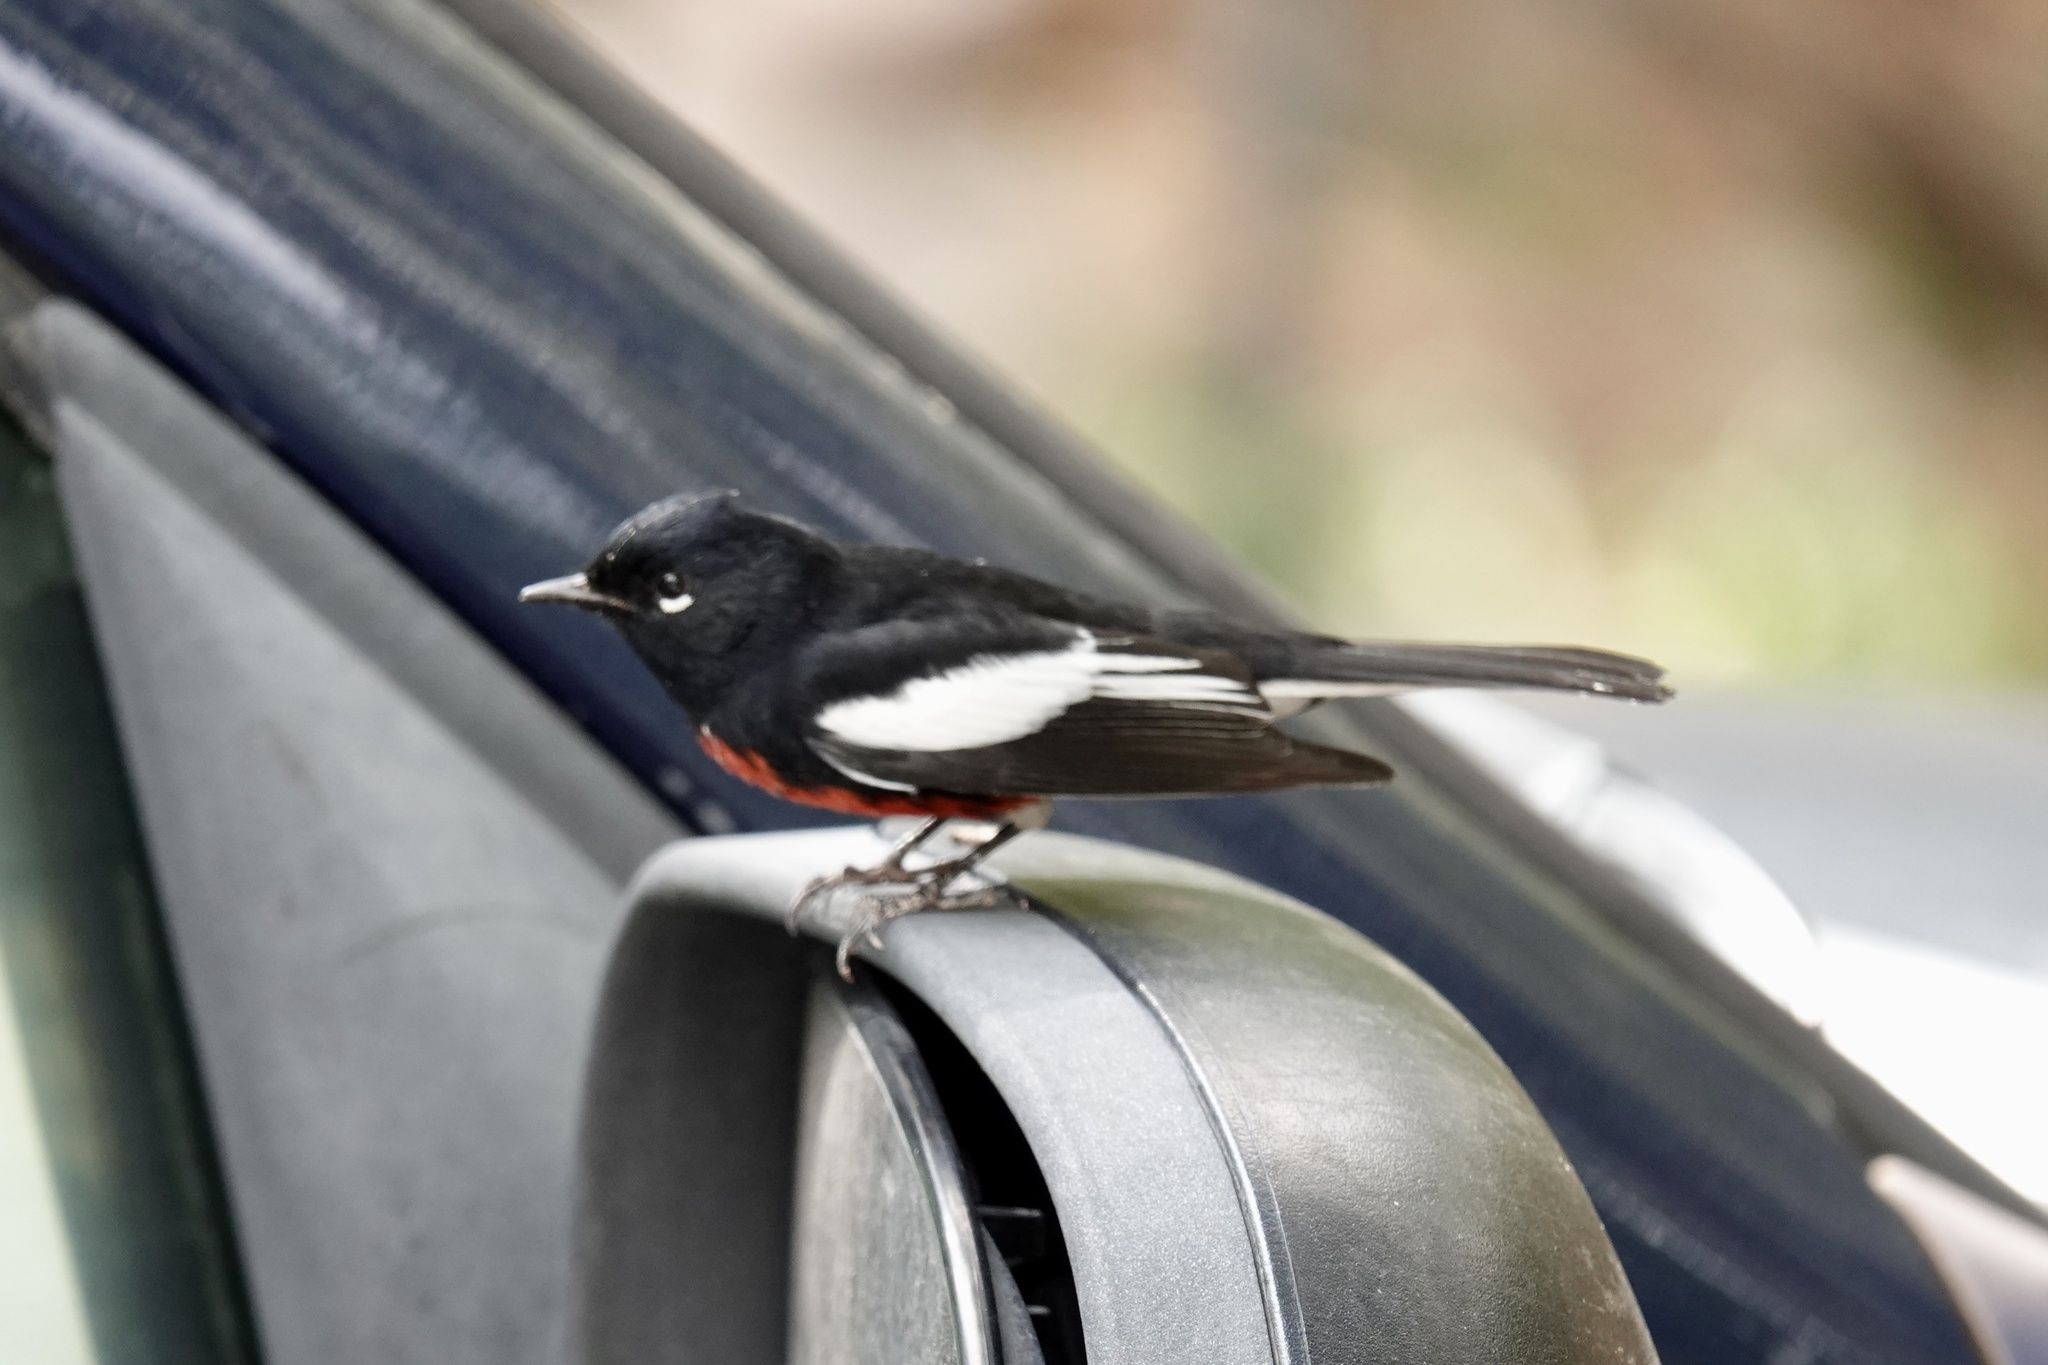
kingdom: Animalia
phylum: Chordata
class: Aves
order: Passeriformes
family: Parulidae
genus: Myioborus
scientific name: Myioborus pictus
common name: Painted whitestart
